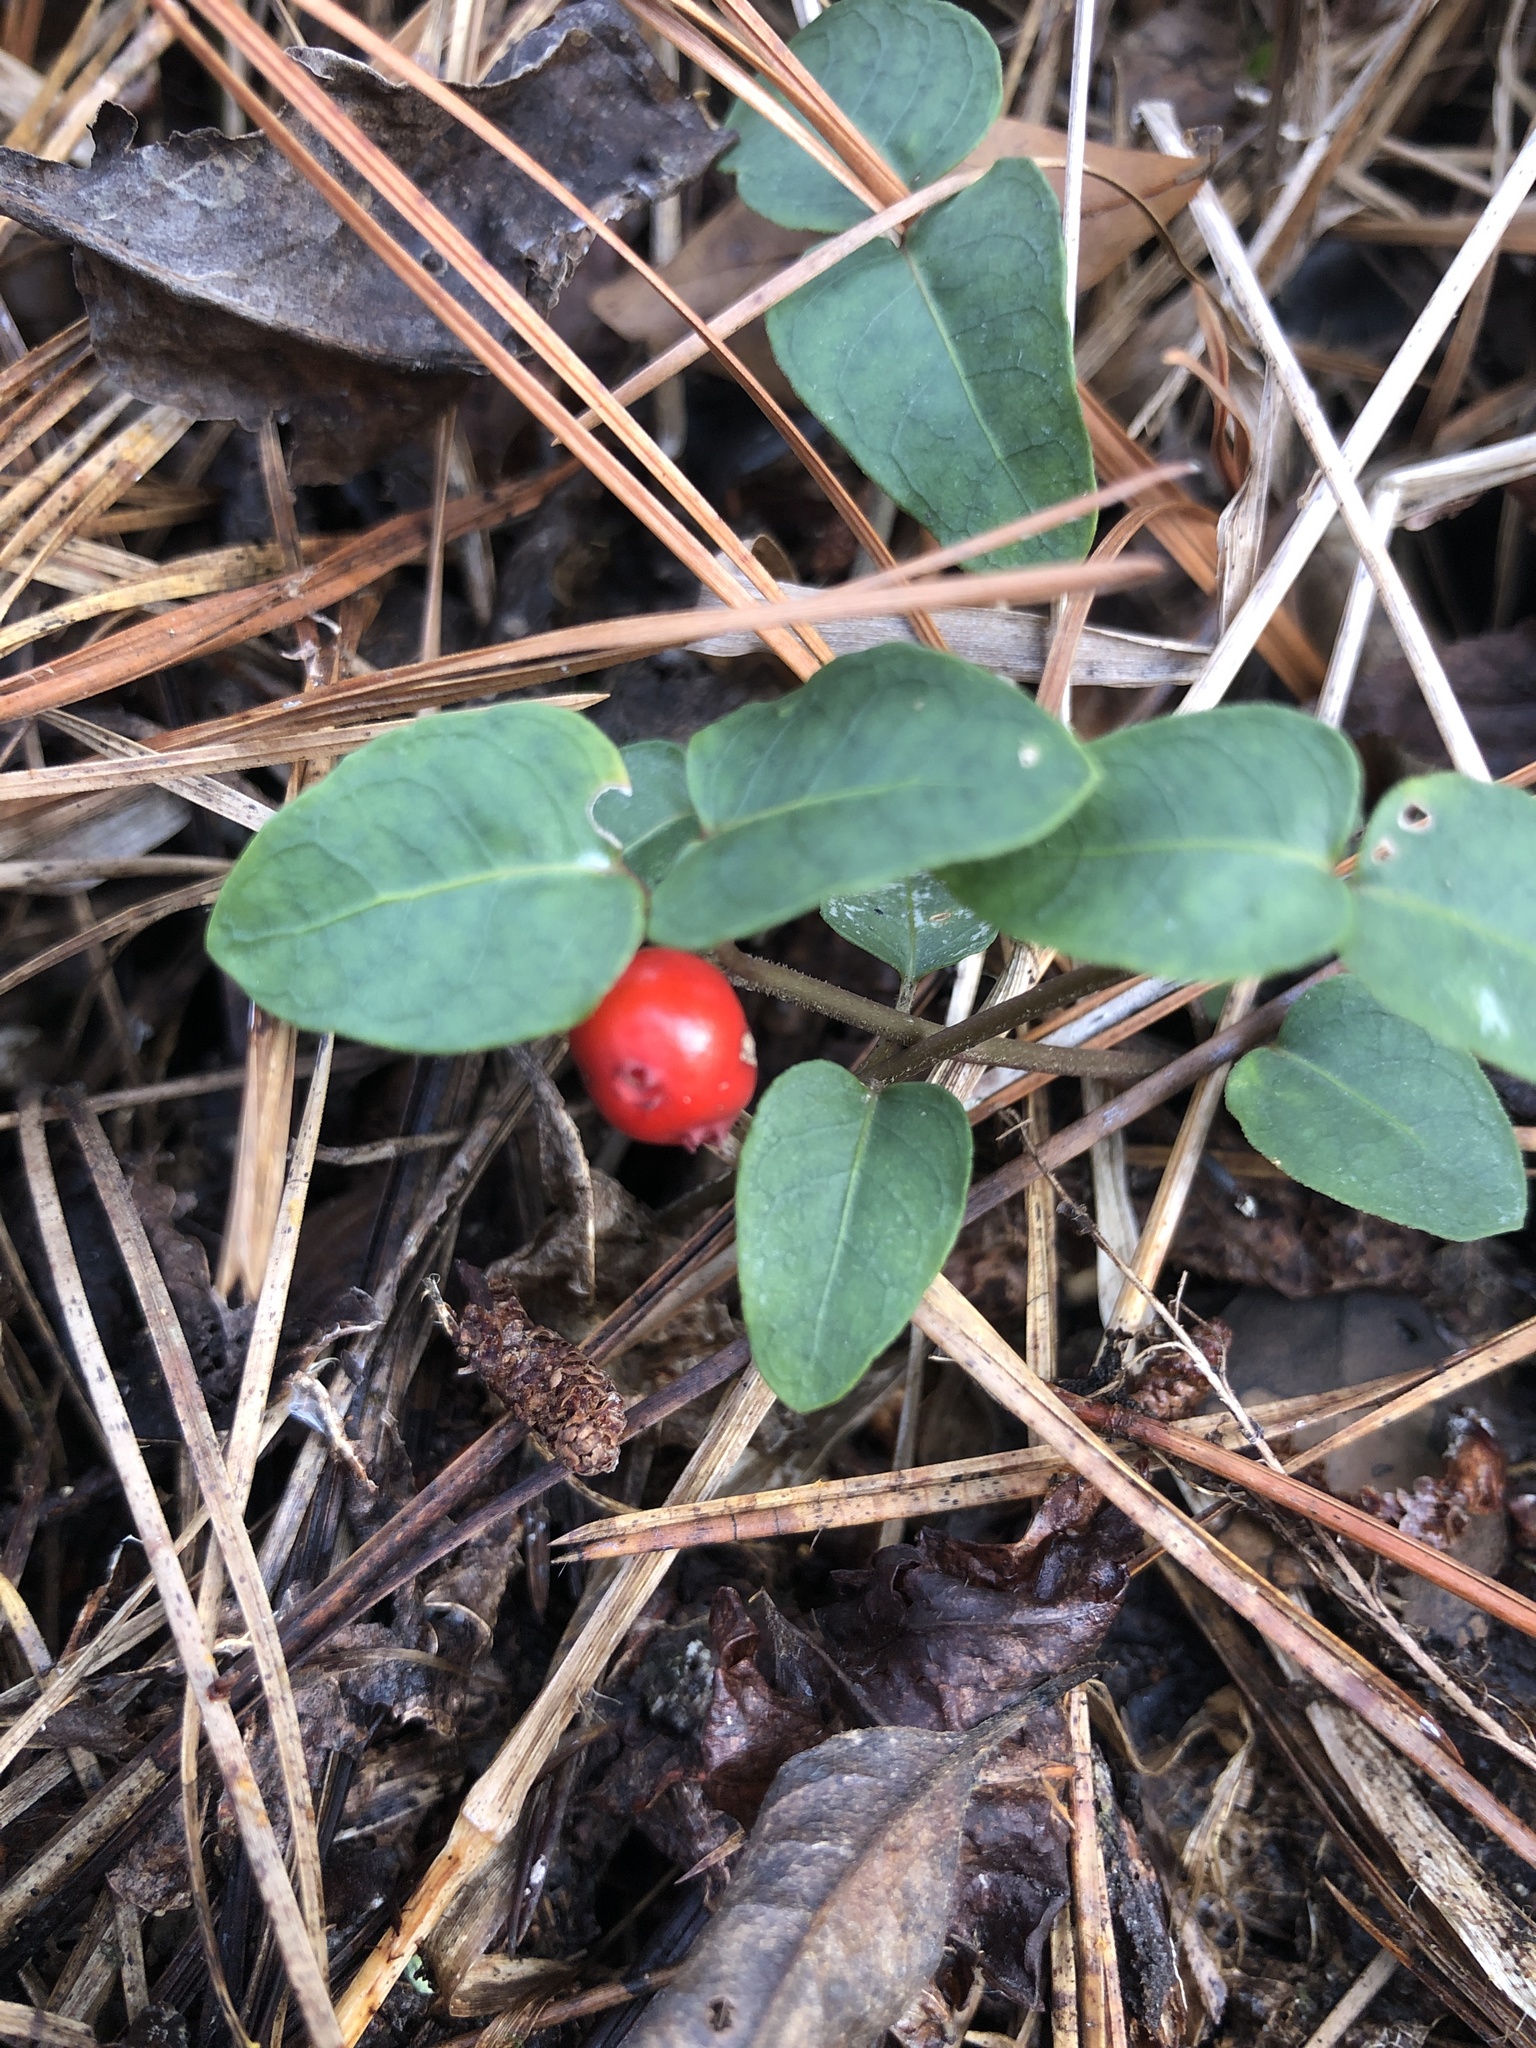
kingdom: Plantae
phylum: Tracheophyta
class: Magnoliopsida
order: Gentianales
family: Rubiaceae
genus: Mitchella
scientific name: Mitchella repens
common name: Partridge-berry
